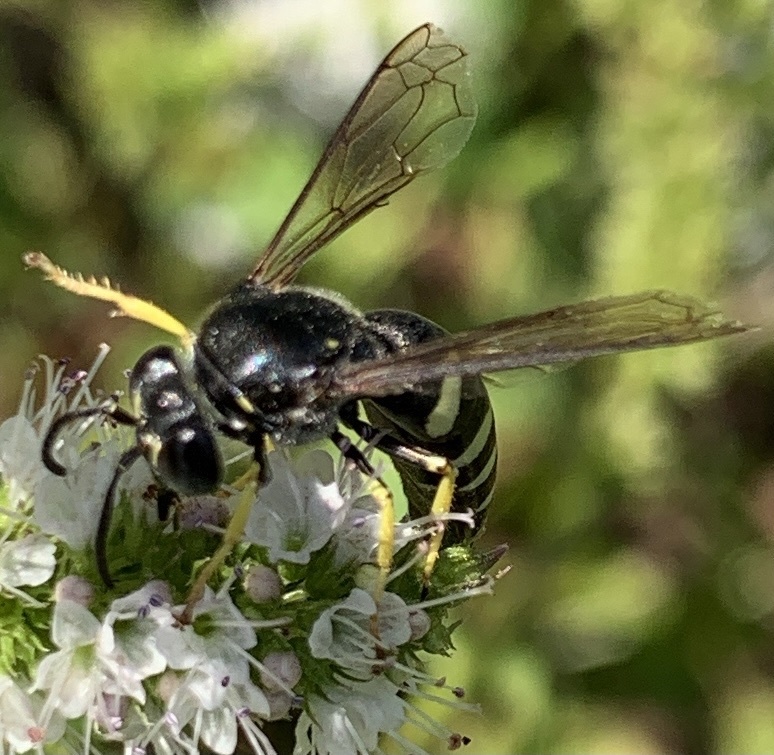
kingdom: Animalia
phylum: Arthropoda
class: Insecta
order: Hymenoptera
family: Crabronidae
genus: Bicyrtes
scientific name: Bicyrtes quadrifasciatus
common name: Four-banded stink bug hunter wasp
